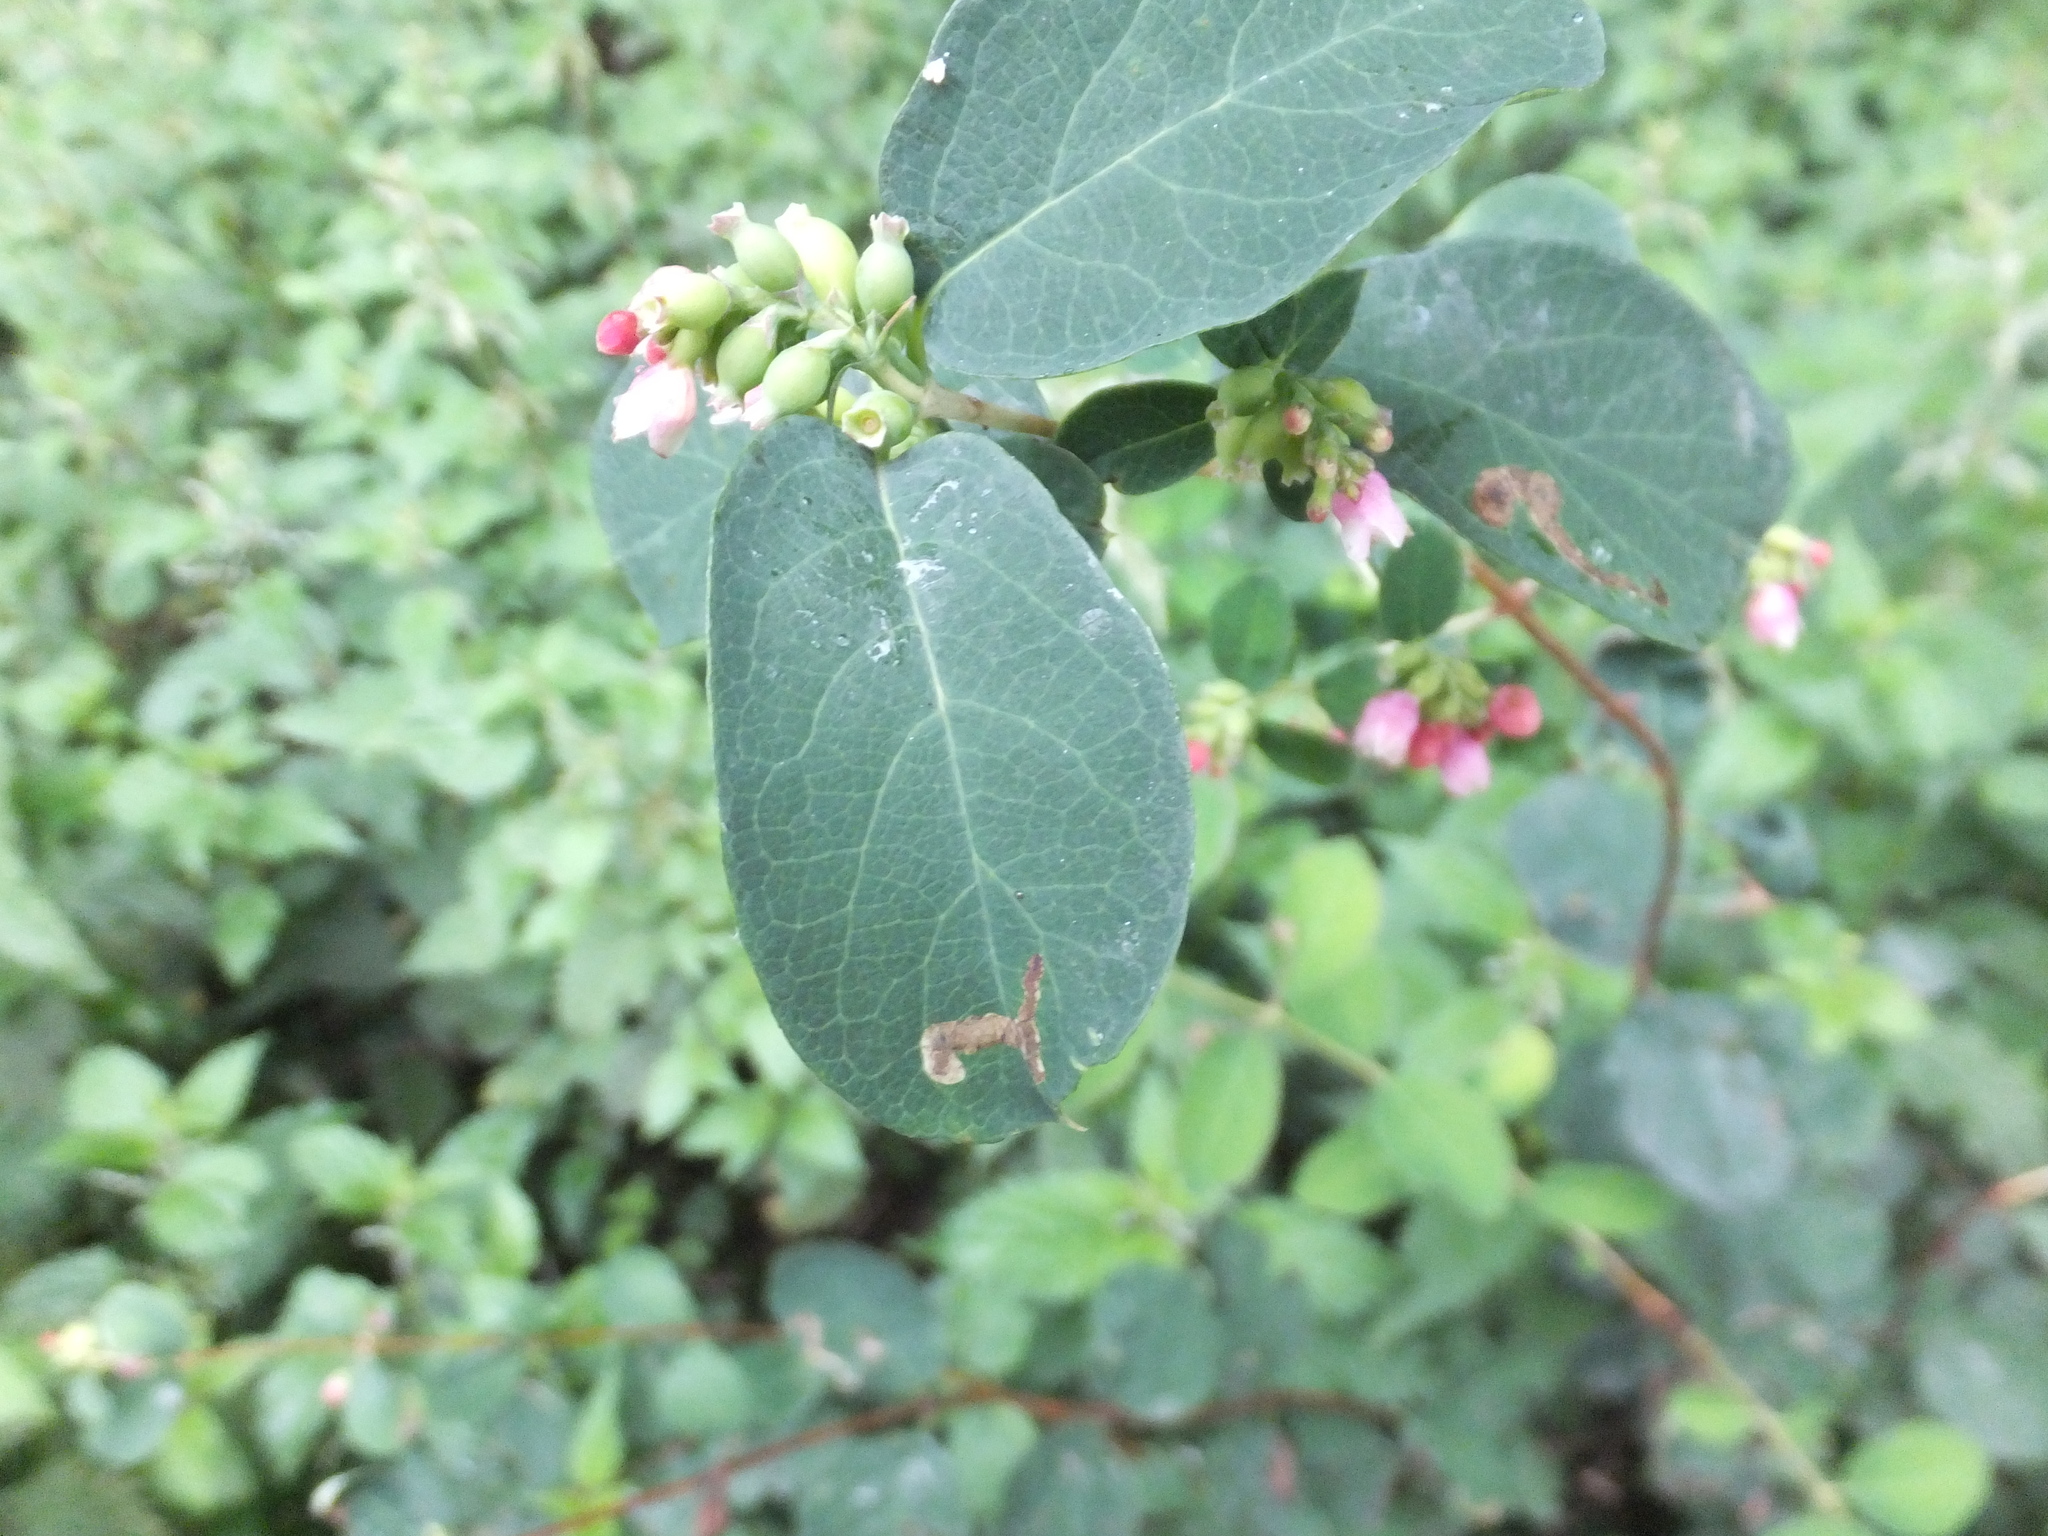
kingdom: Plantae
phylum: Tracheophyta
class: Magnoliopsida
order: Dipsacales
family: Caprifoliaceae
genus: Symphoricarpos
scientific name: Symphoricarpos albus
